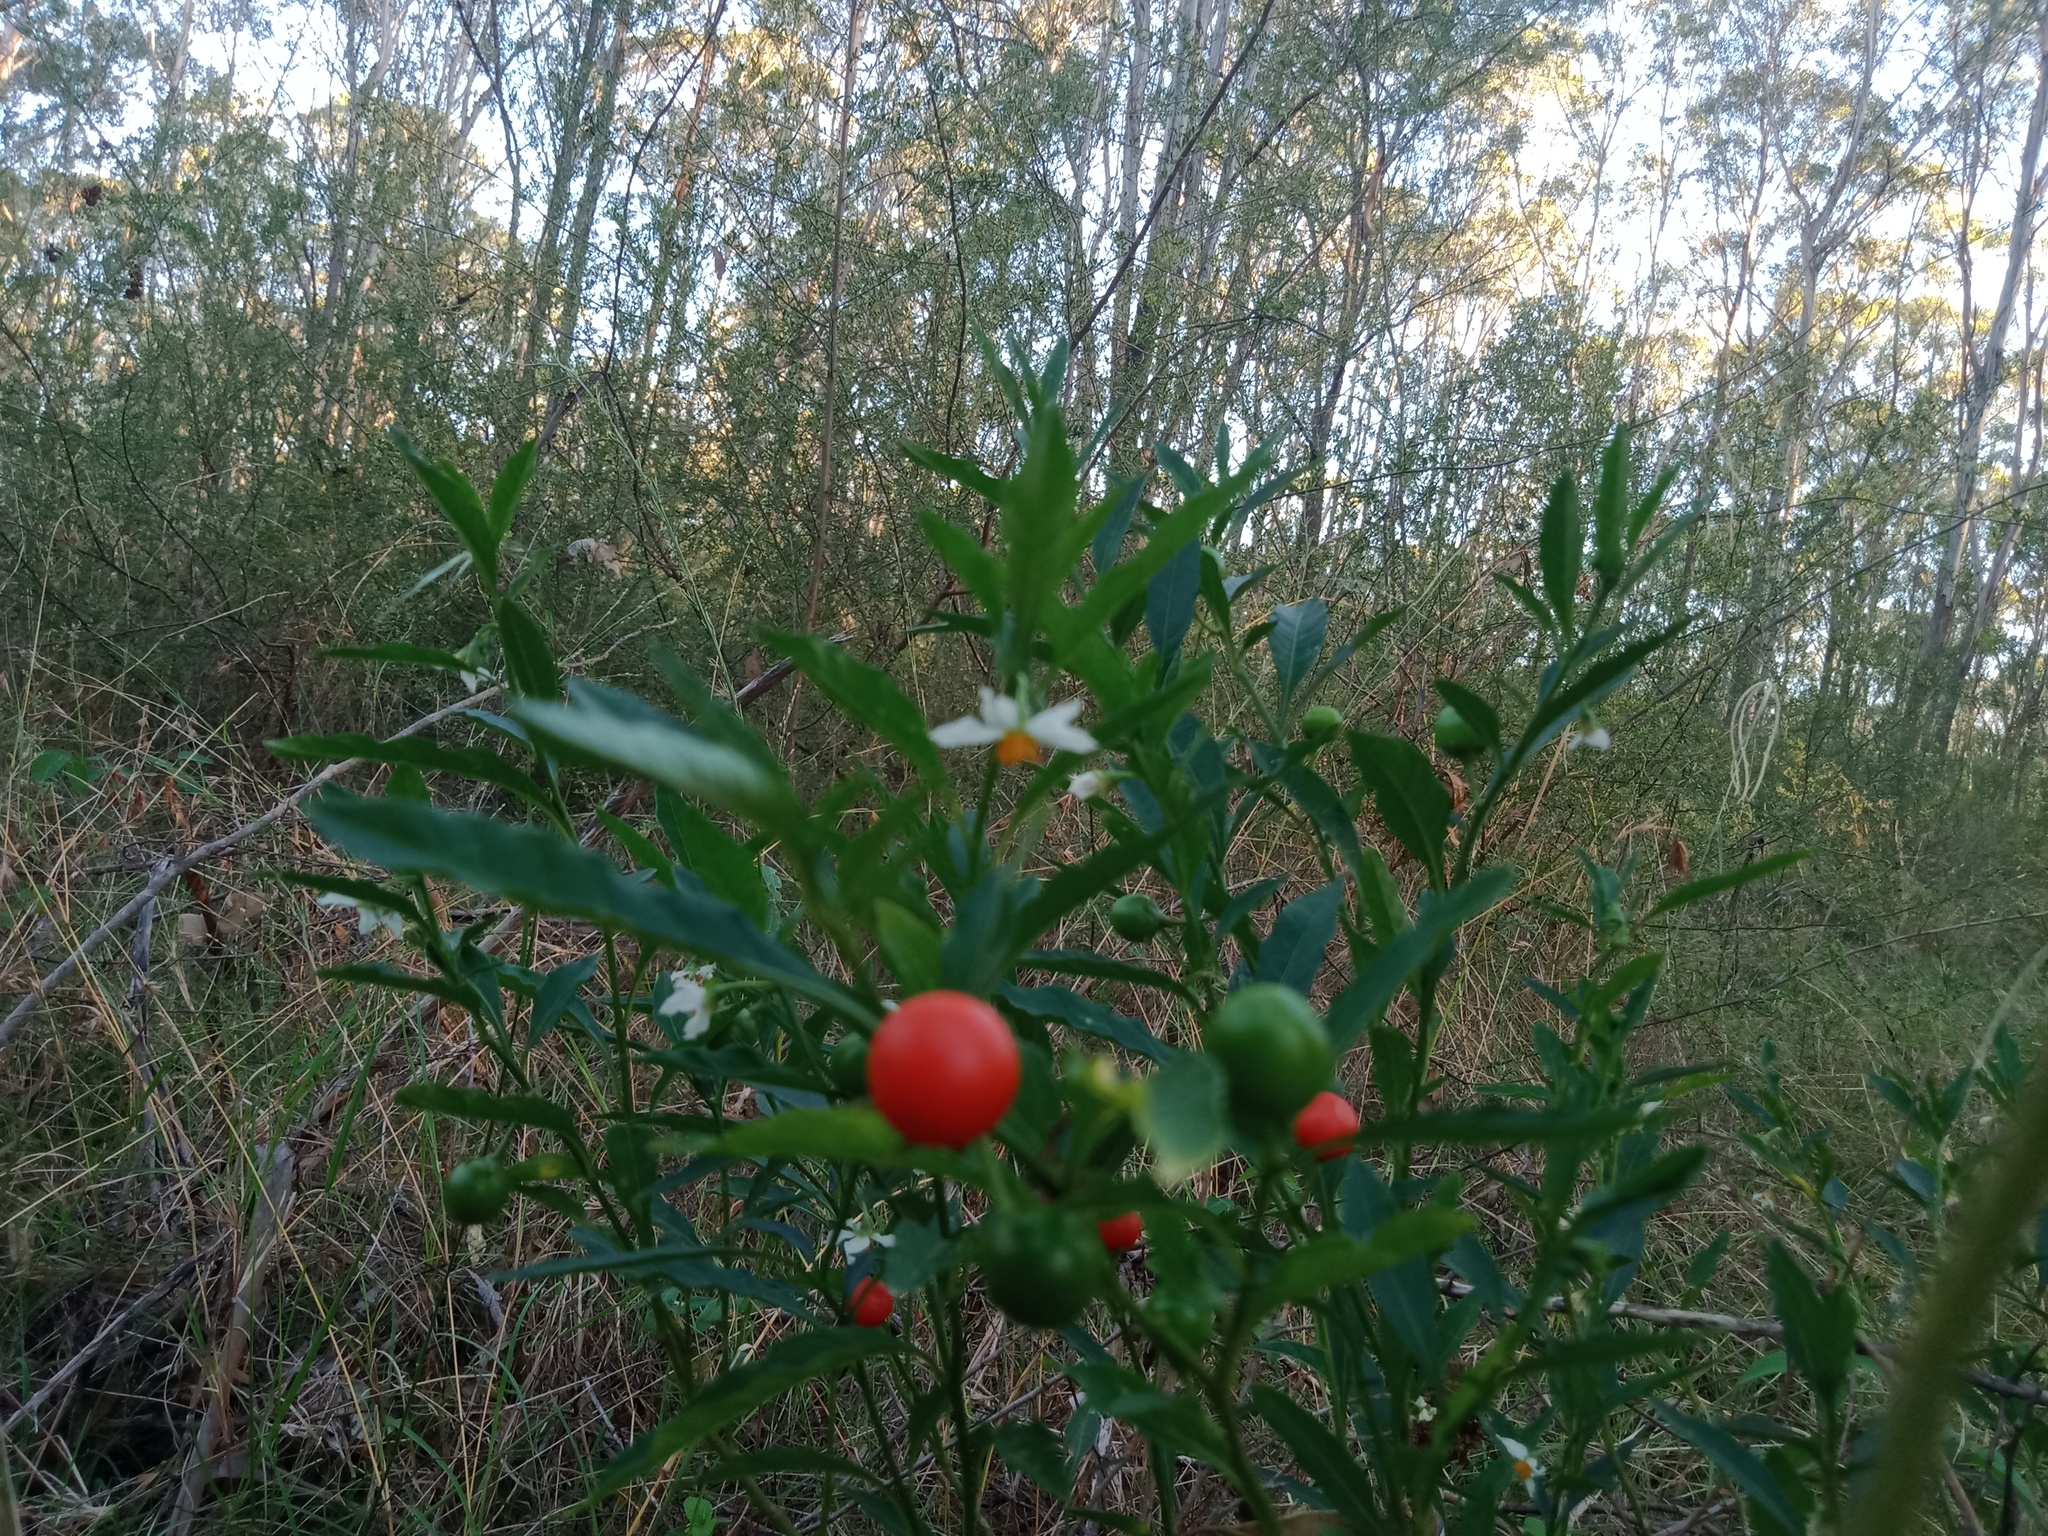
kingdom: Plantae
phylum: Tracheophyta
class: Magnoliopsida
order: Solanales
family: Solanaceae
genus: Solanum
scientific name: Solanum pseudocapsicum
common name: Jerusalem cherry
